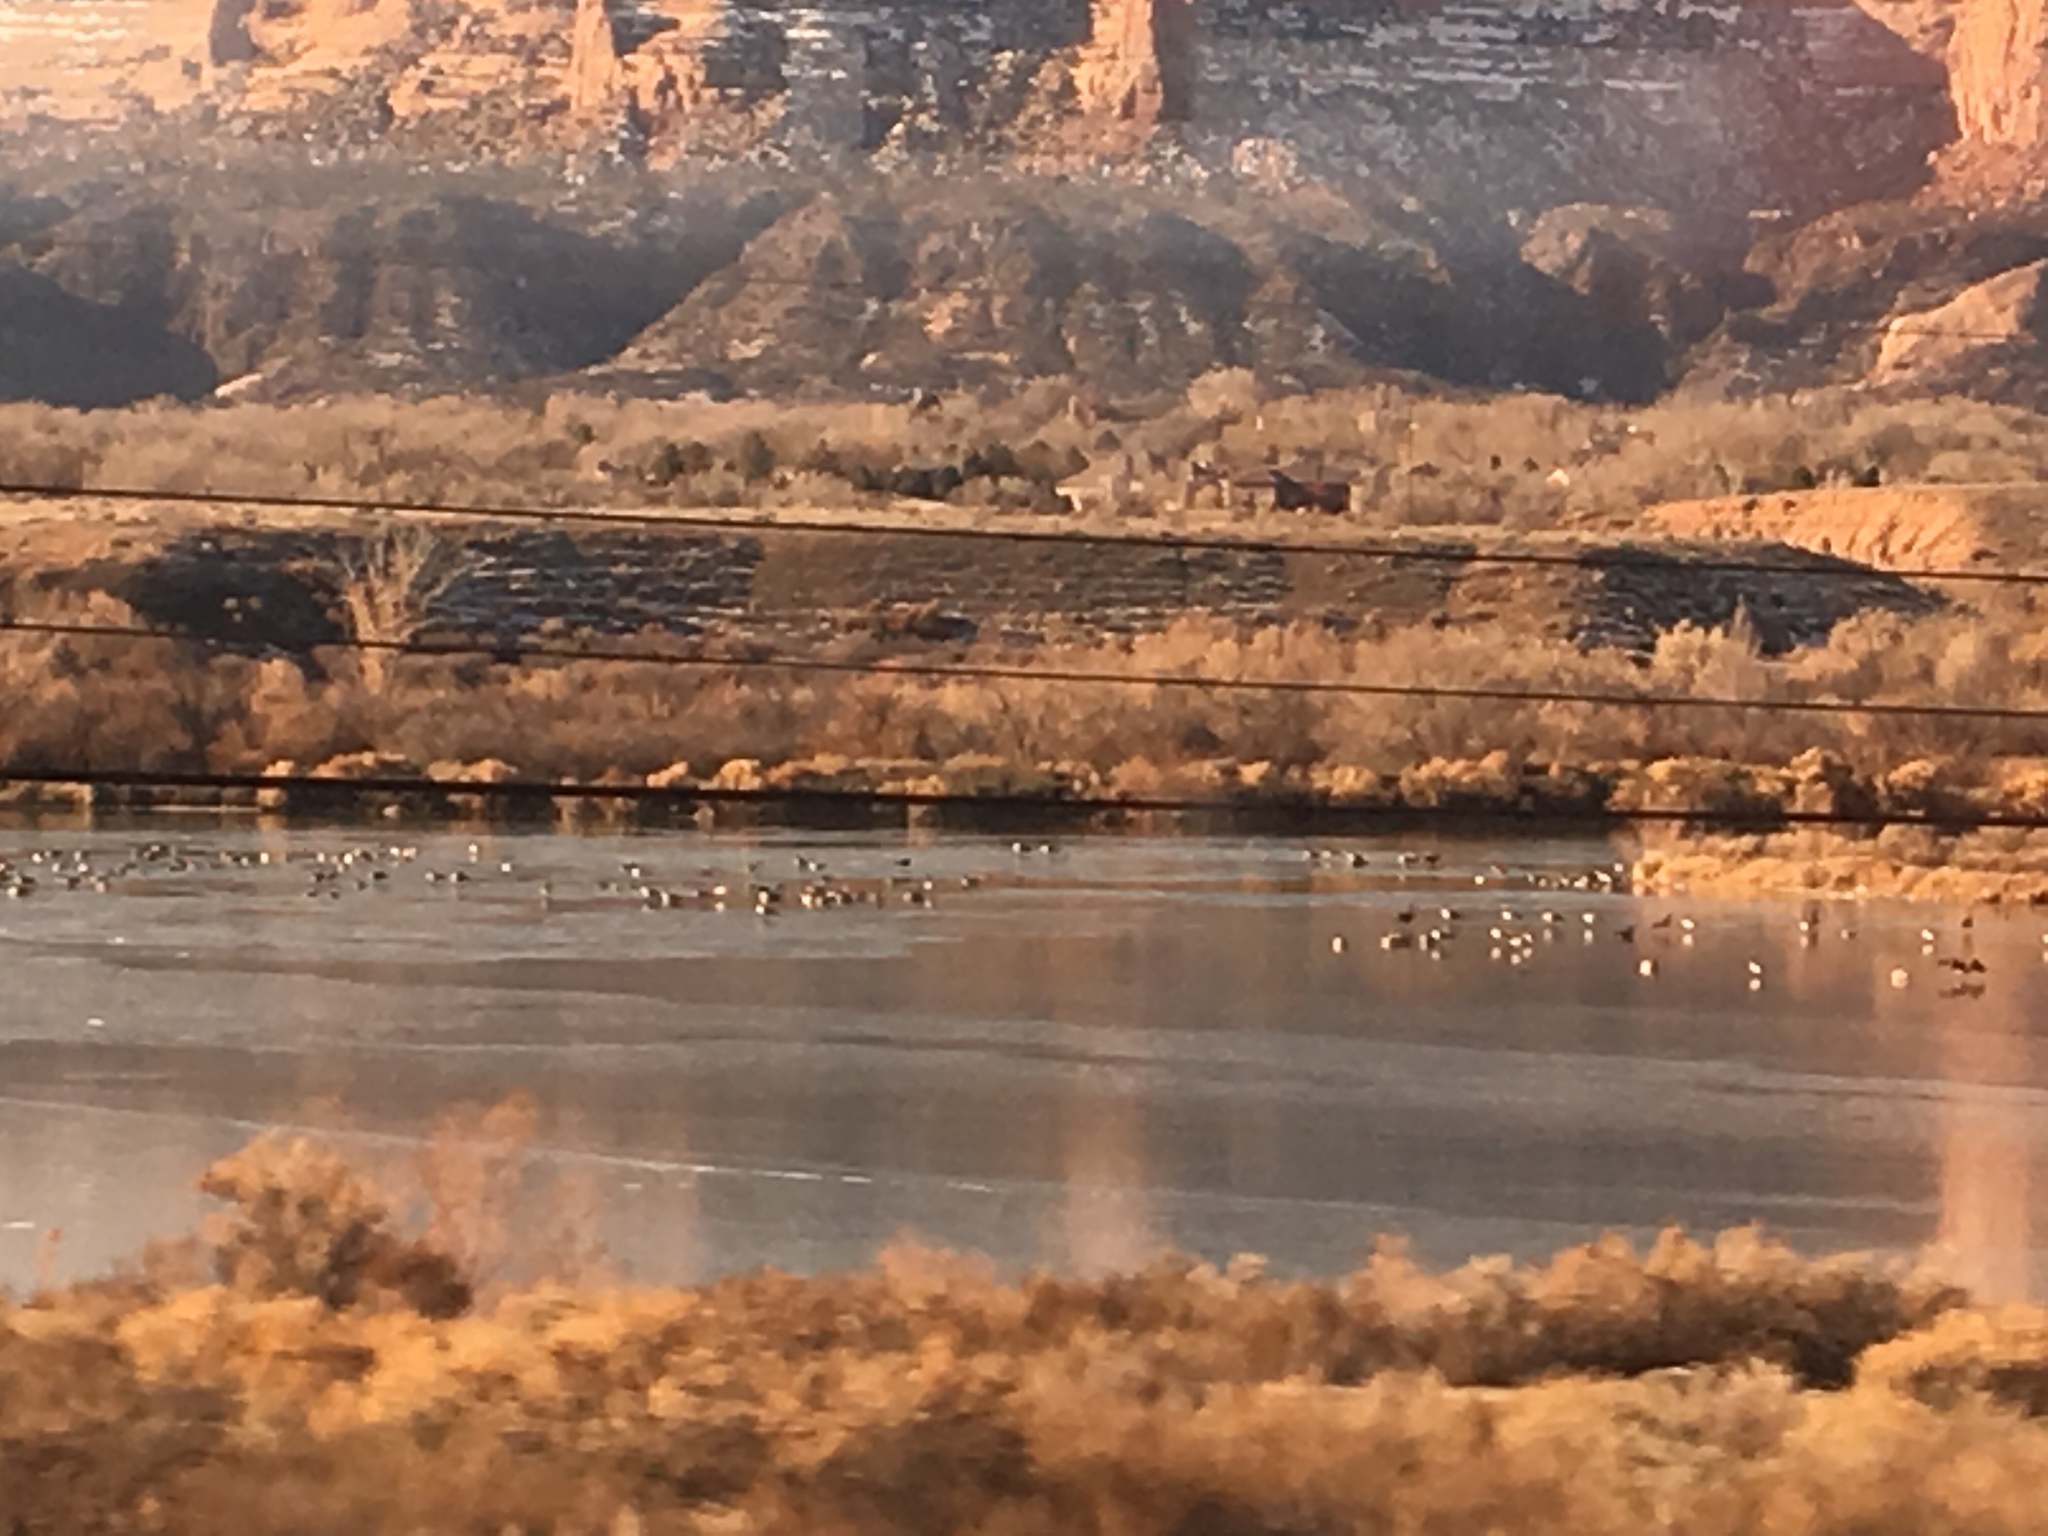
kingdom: Animalia
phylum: Chordata
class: Aves
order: Anseriformes
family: Anatidae
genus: Branta
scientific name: Branta canadensis
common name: Canada goose
